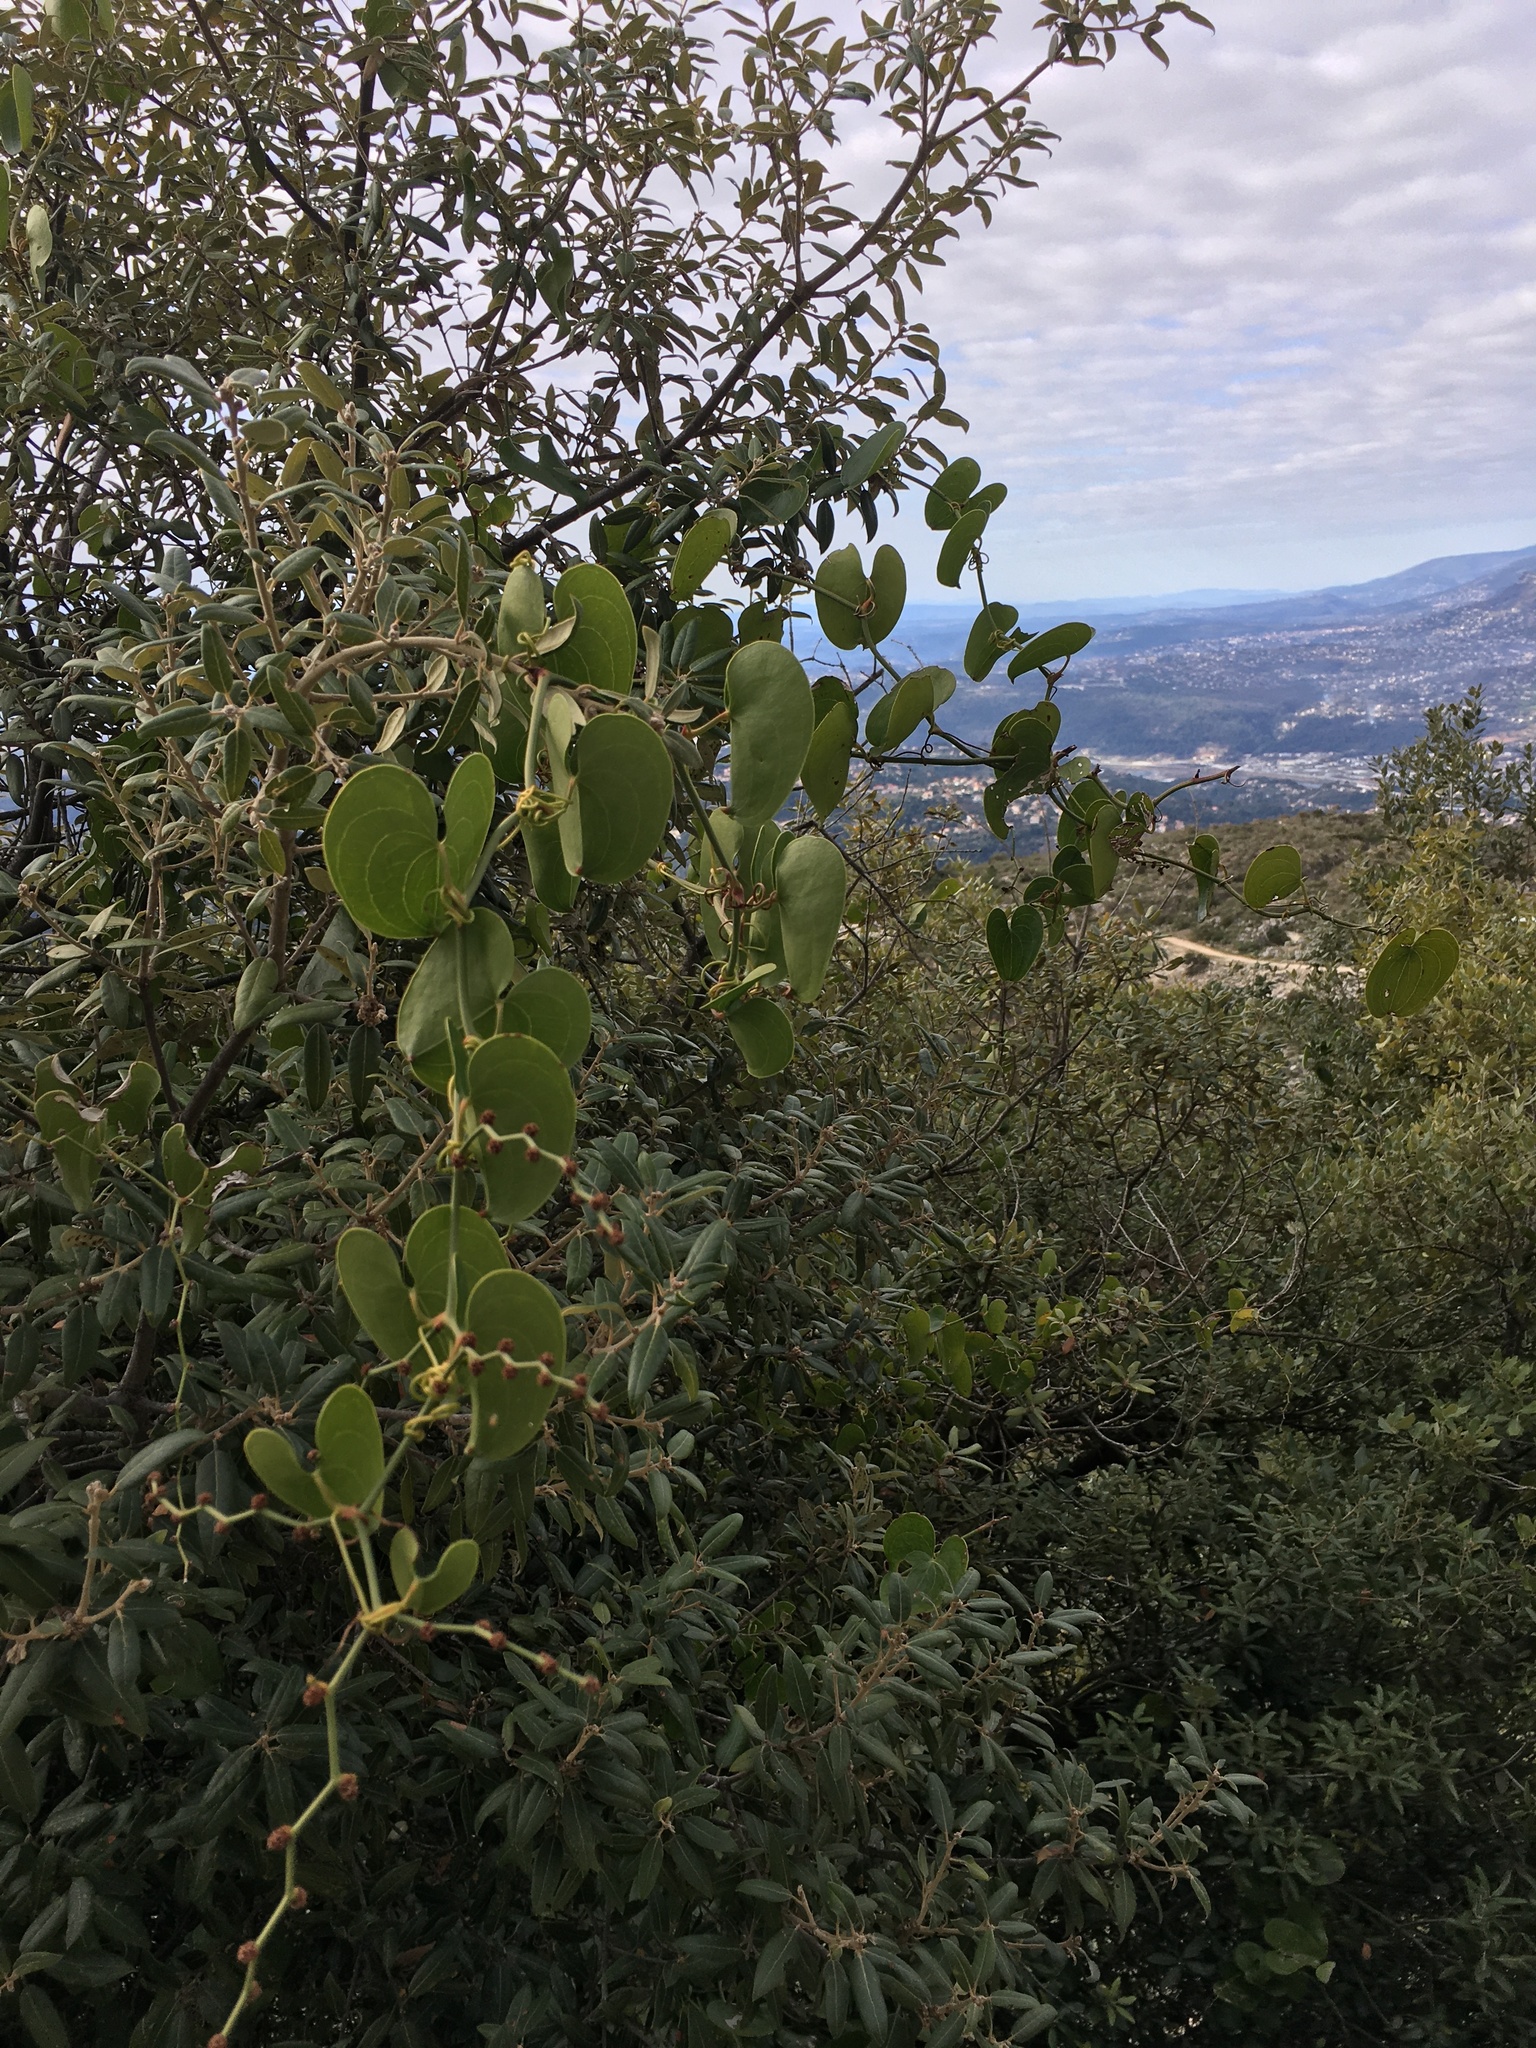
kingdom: Plantae
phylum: Tracheophyta
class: Liliopsida
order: Liliales
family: Smilacaceae
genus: Smilax
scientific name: Smilax aspera
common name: Common smilax
